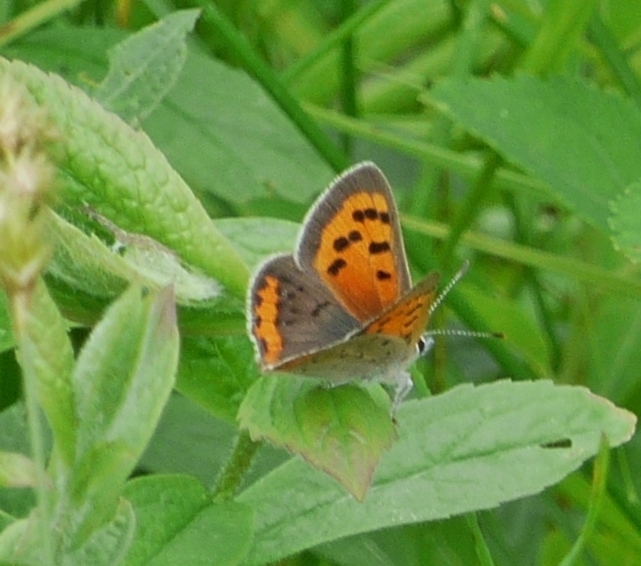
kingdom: Animalia
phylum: Arthropoda
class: Insecta
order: Lepidoptera
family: Lycaenidae
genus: Lycaena
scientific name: Lycaena hypophlaeas
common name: American copper
